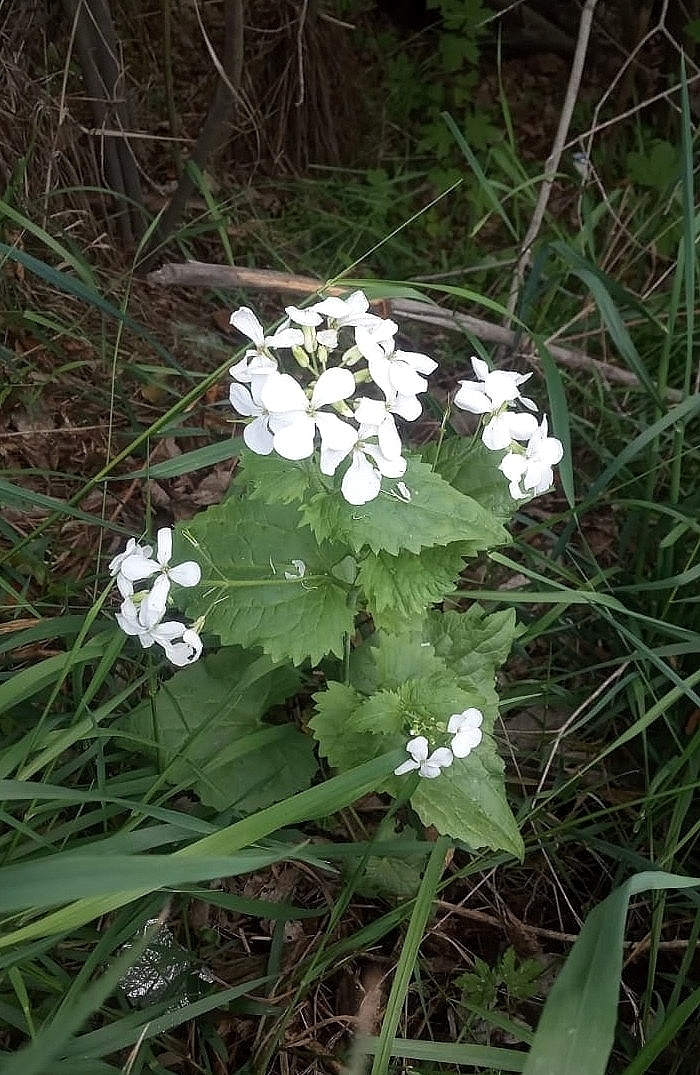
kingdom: Plantae
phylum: Tracheophyta
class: Magnoliopsida
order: Brassicales
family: Brassicaceae
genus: Lunaria
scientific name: Lunaria annua
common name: Honesty
